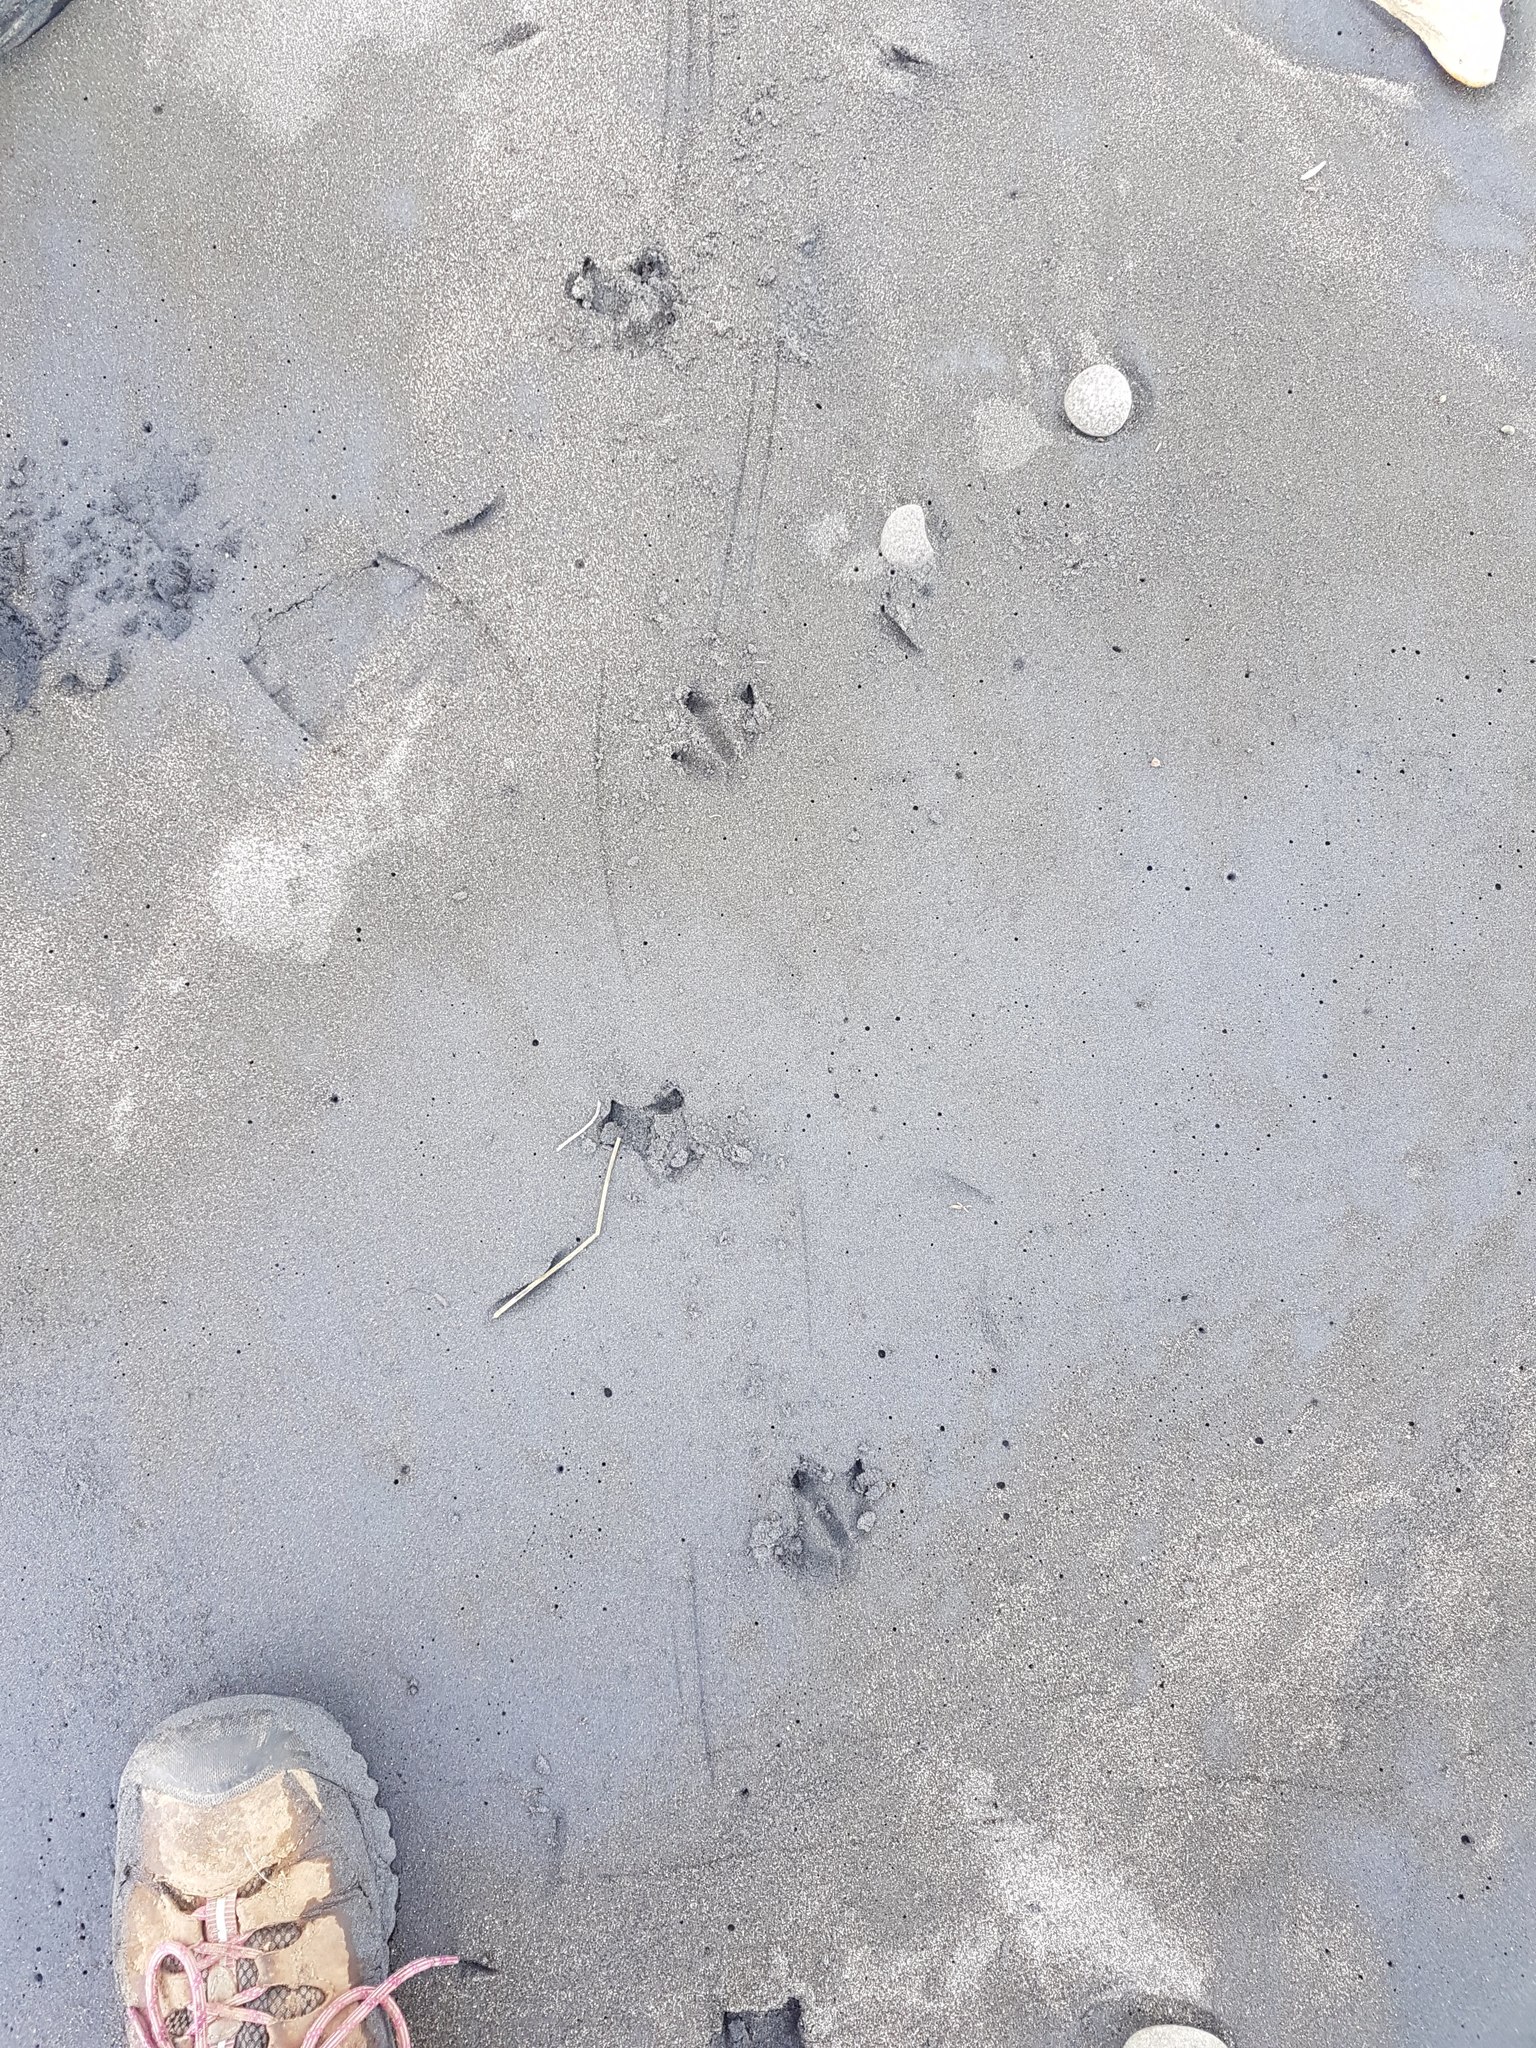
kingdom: Animalia
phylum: Chordata
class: Aves
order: Sphenisciformes
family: Spheniscidae
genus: Eudyptula
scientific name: Eudyptula minor
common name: Little penguin
